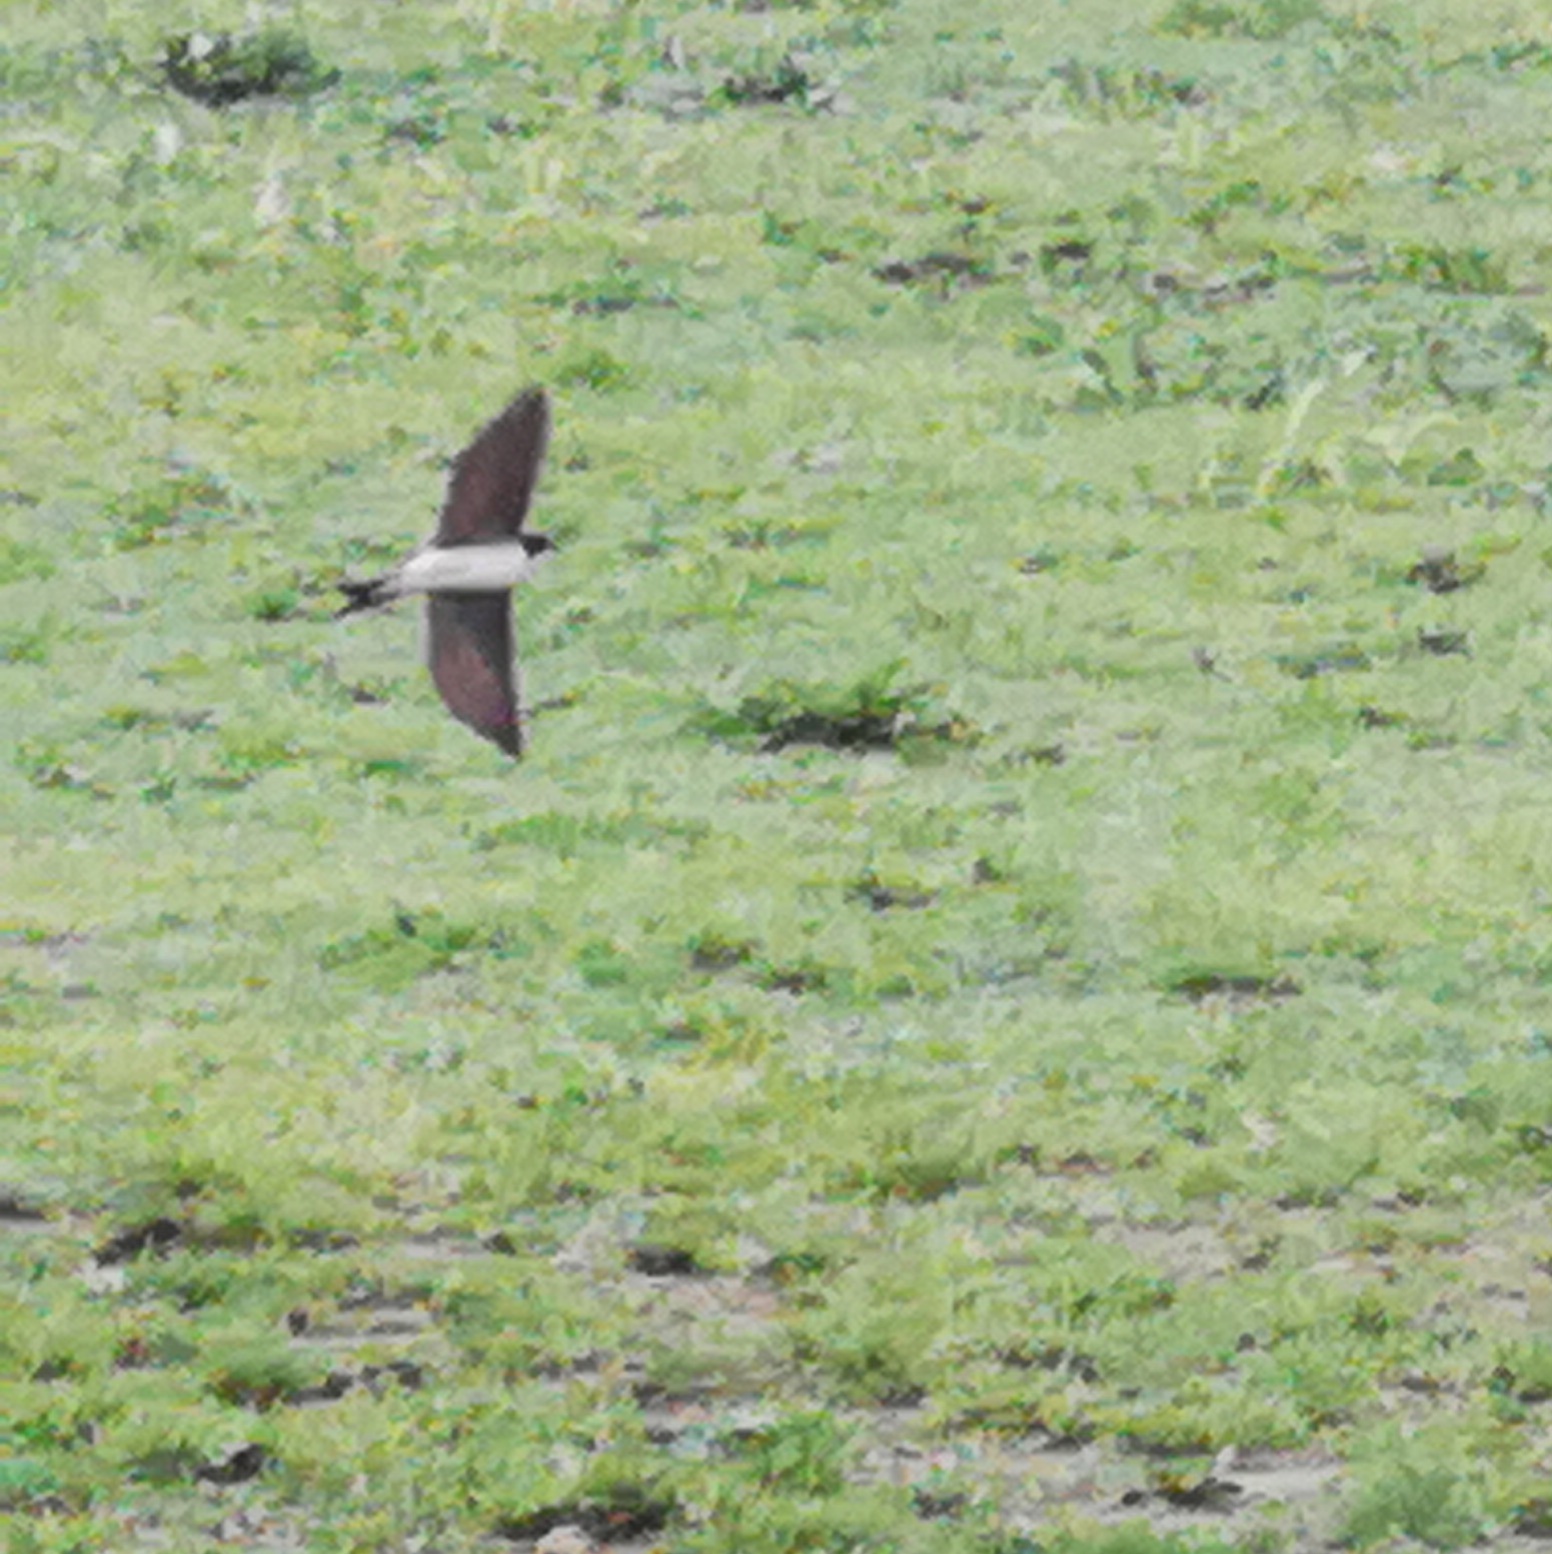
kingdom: Animalia
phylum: Chordata
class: Aves
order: Passeriformes
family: Hirundinidae
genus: Delichon
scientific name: Delichon urbicum
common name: Common house martin
